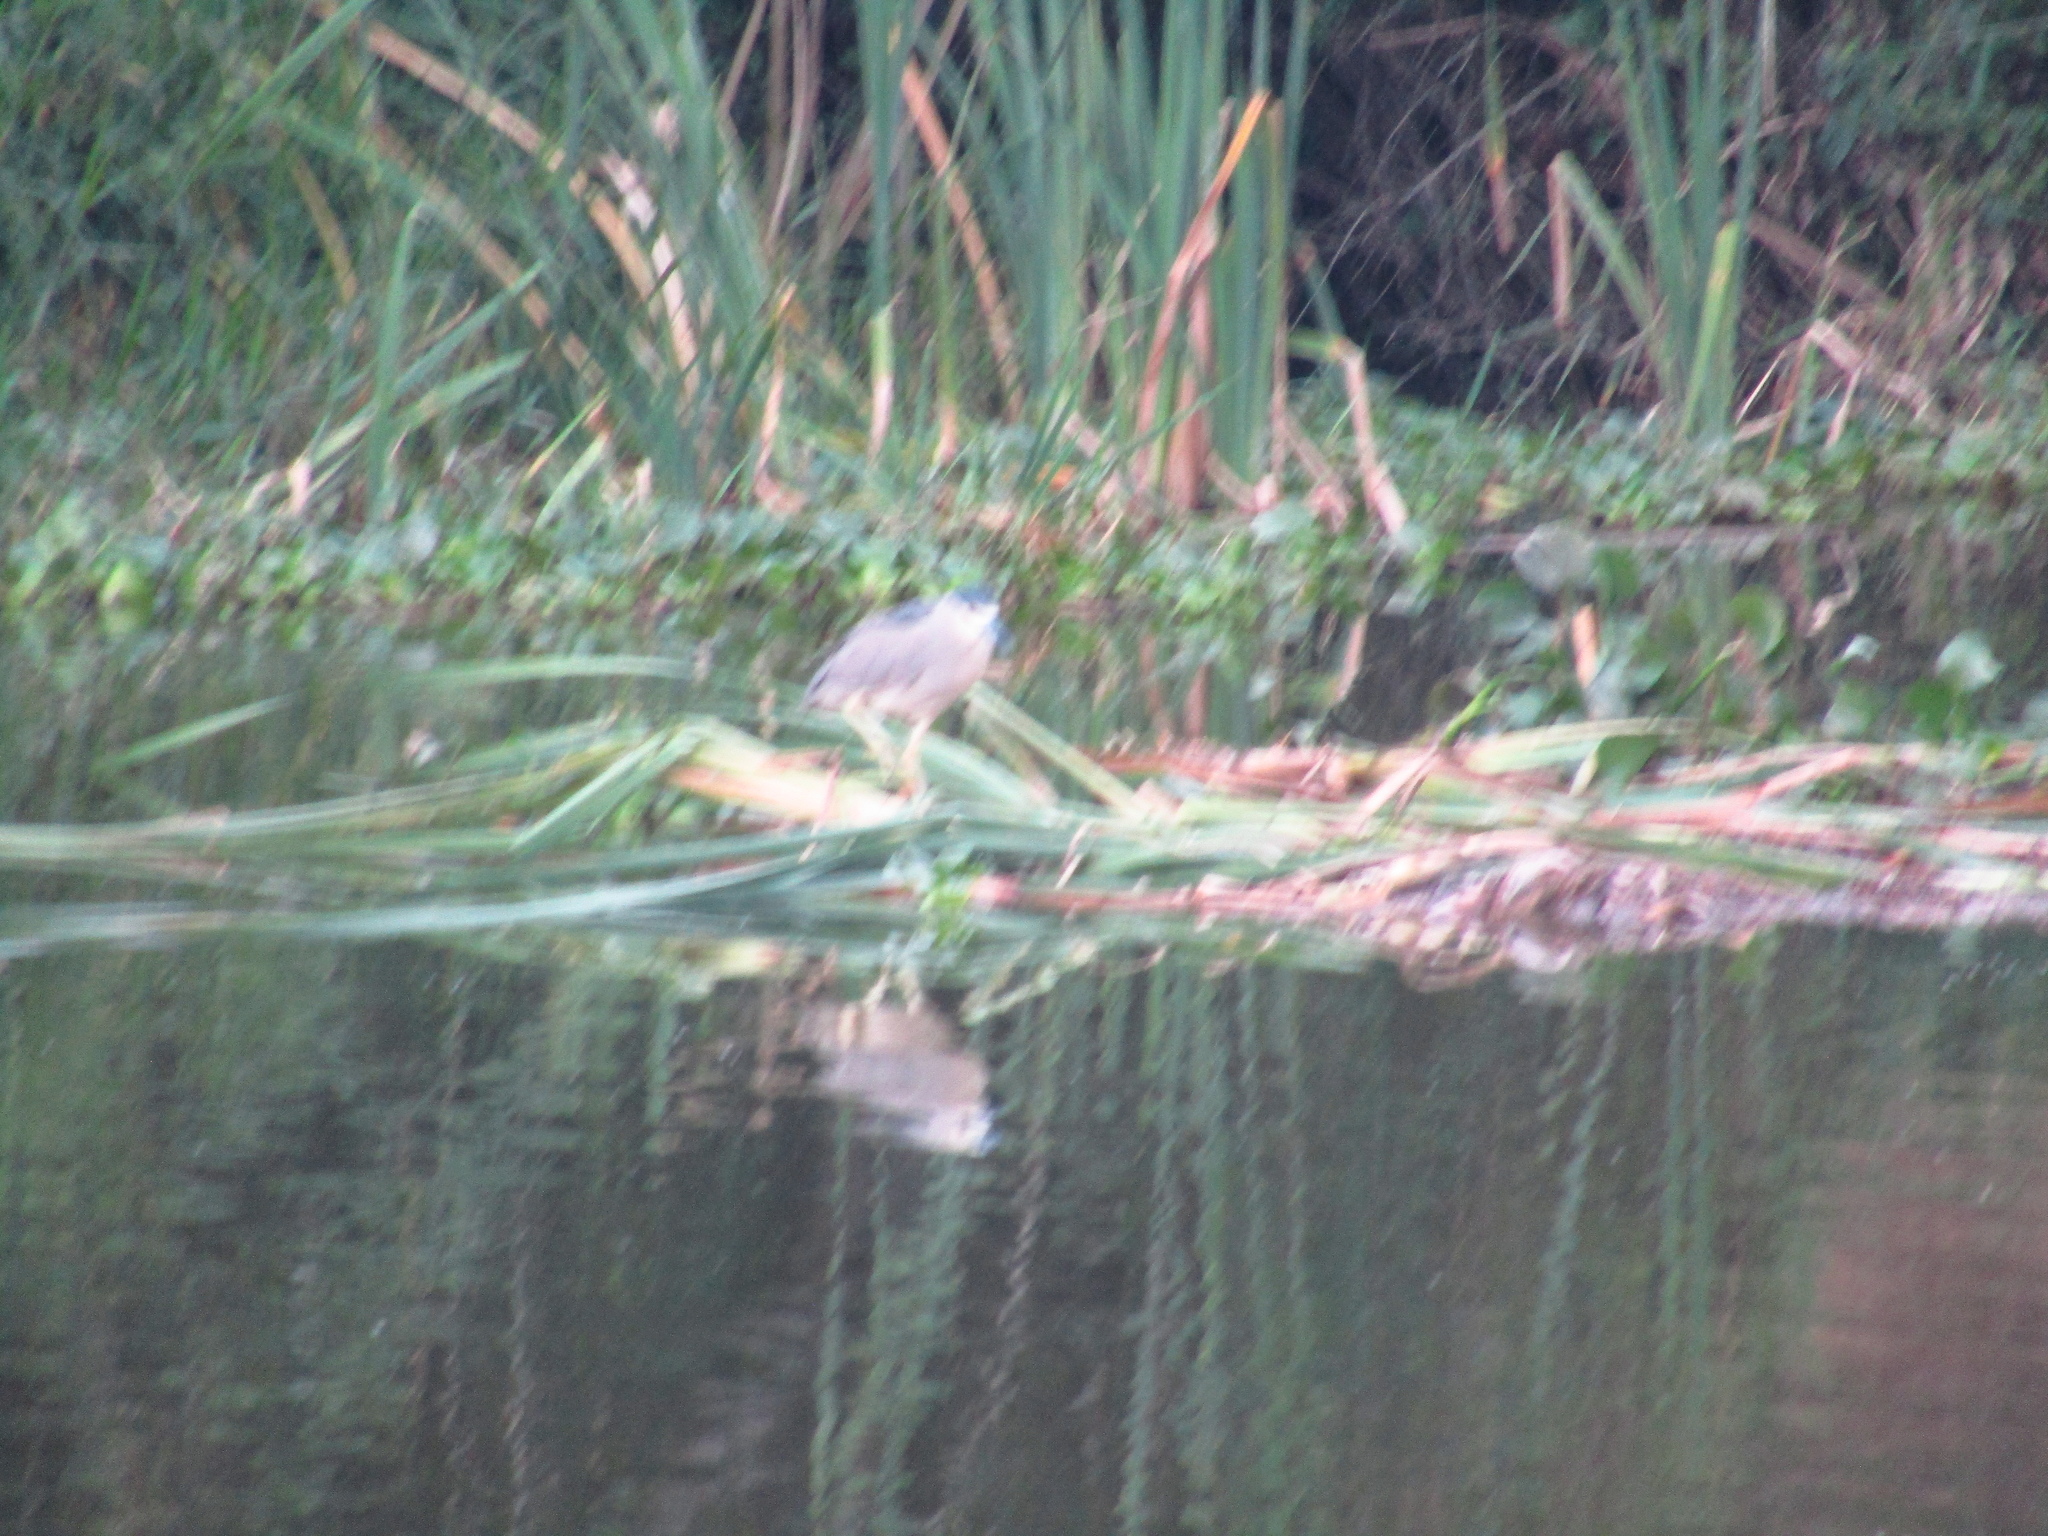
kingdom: Animalia
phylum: Chordata
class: Aves
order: Pelecaniformes
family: Ardeidae
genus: Nycticorax
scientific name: Nycticorax nycticorax
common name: Black-crowned night heron
